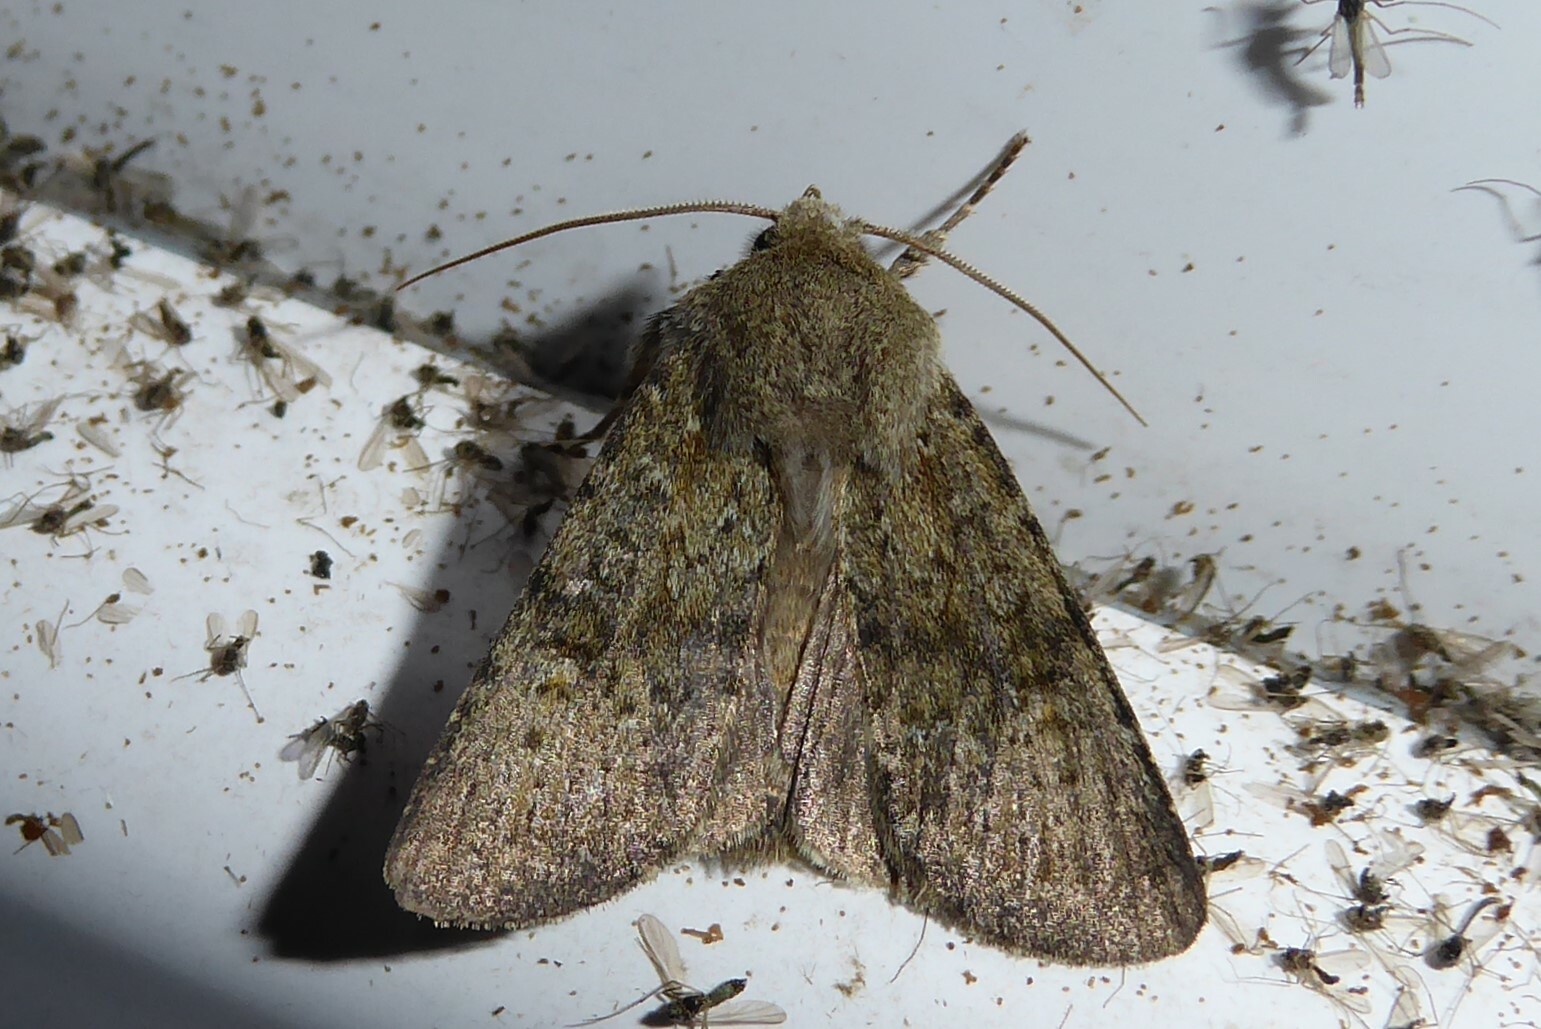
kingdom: Animalia
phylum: Arthropoda
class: Insecta
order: Lepidoptera
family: Noctuidae
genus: Ichneutica
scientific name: Ichneutica moderata
